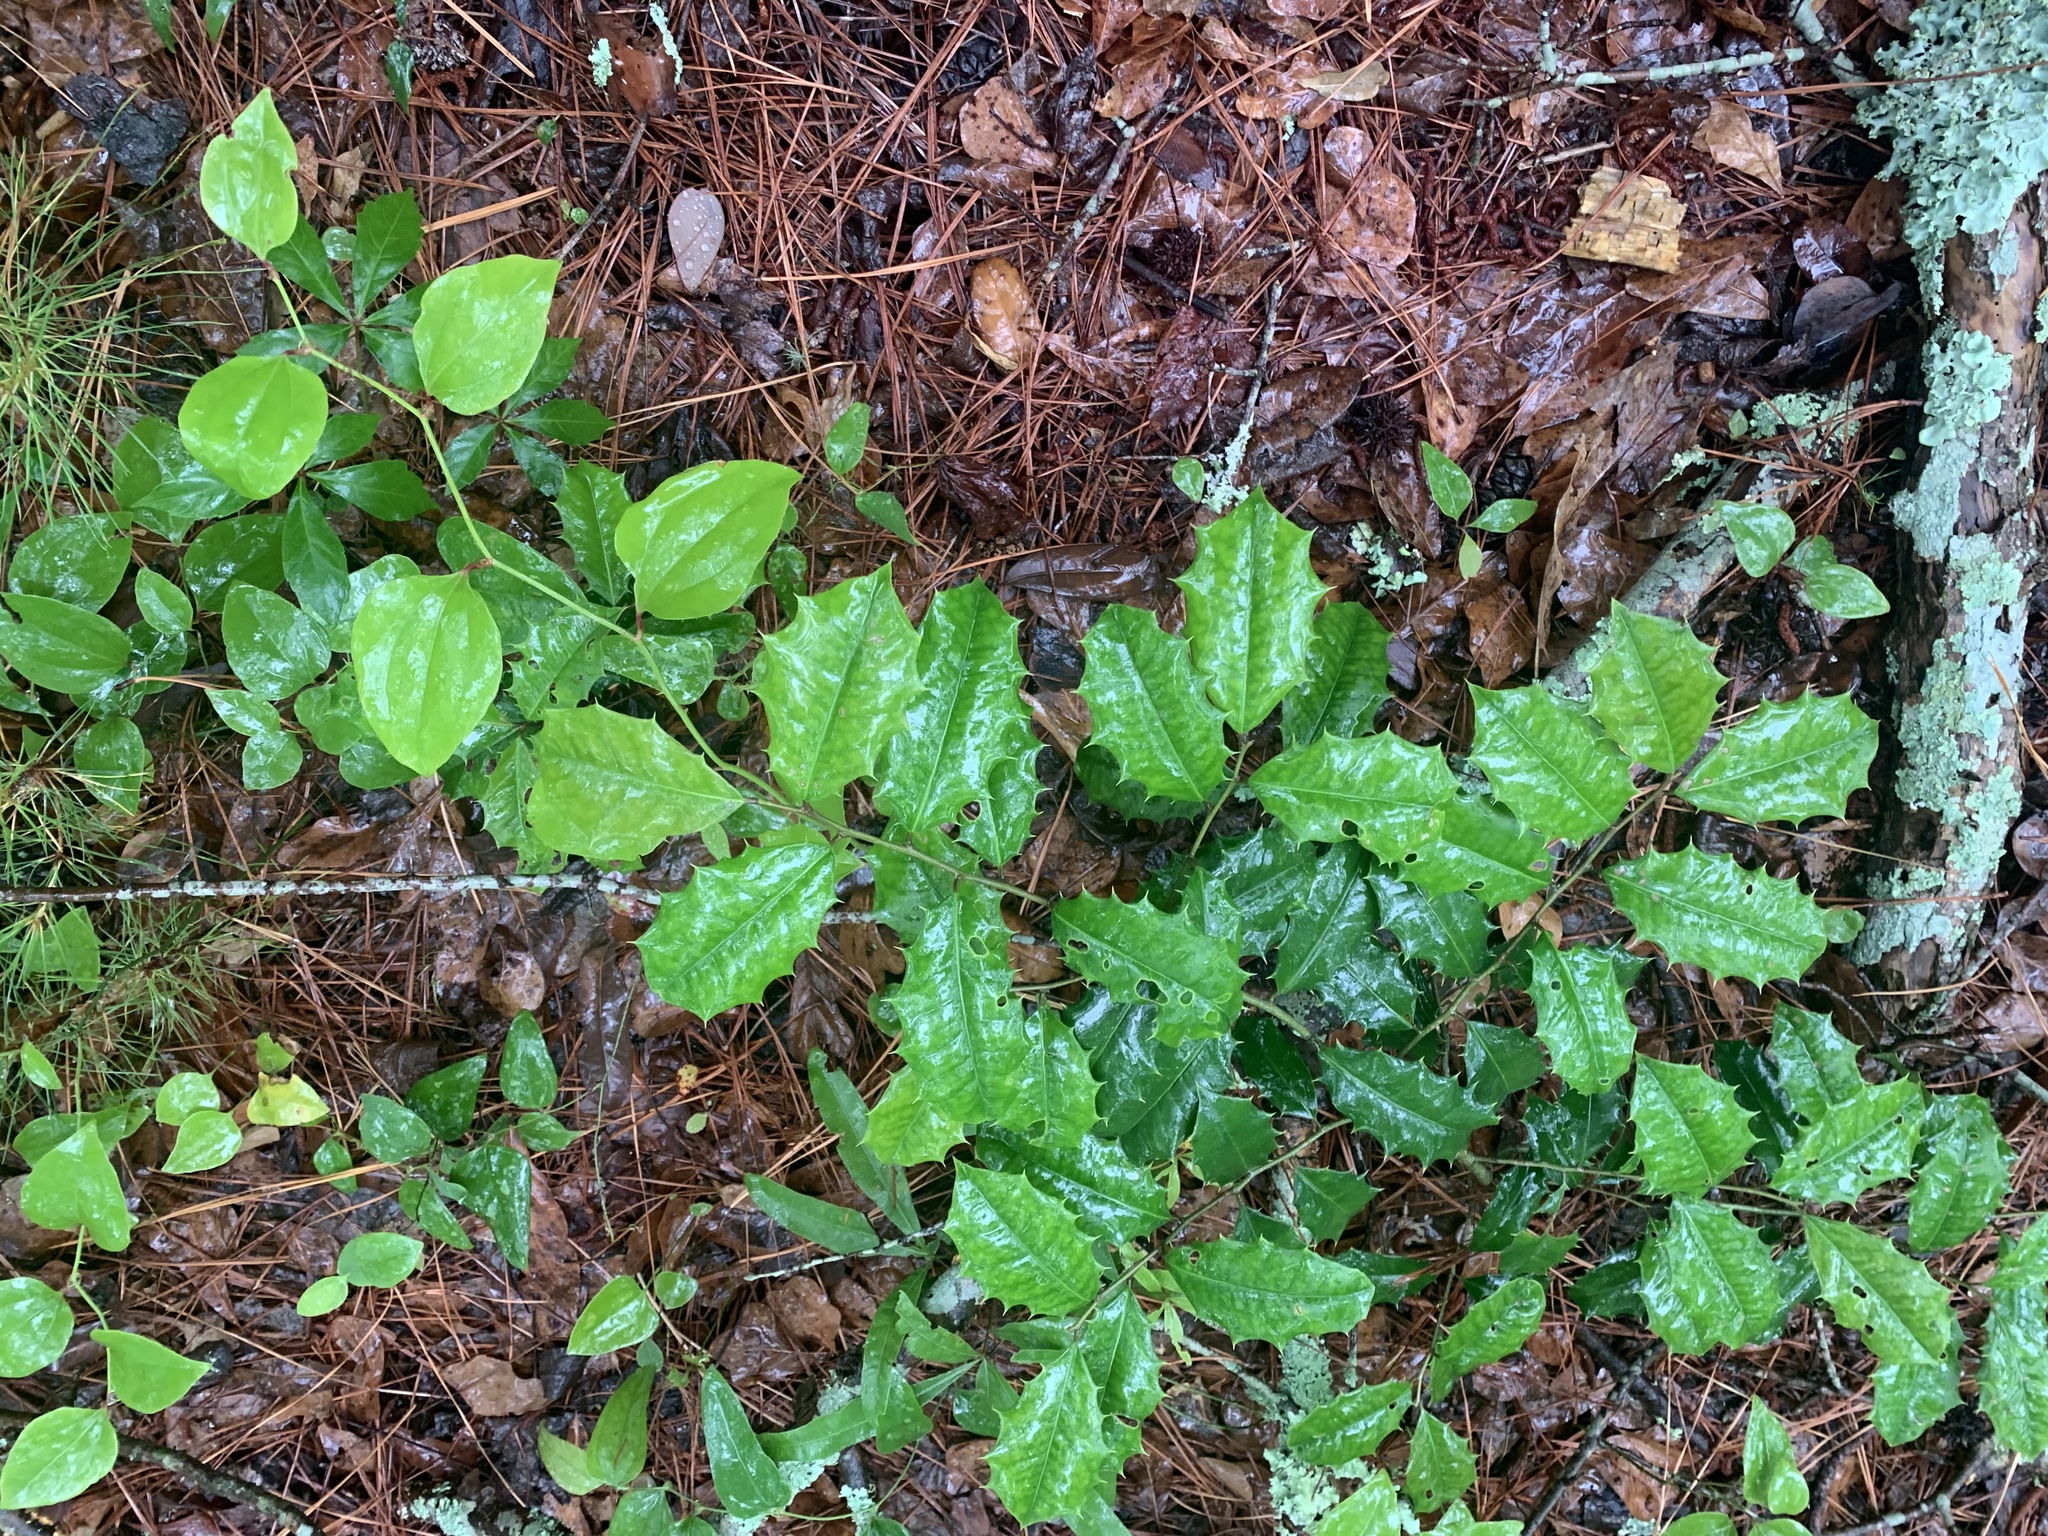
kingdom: Plantae
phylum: Tracheophyta
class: Magnoliopsida
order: Aquifoliales
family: Aquifoliaceae
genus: Ilex
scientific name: Ilex opaca
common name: American holly
